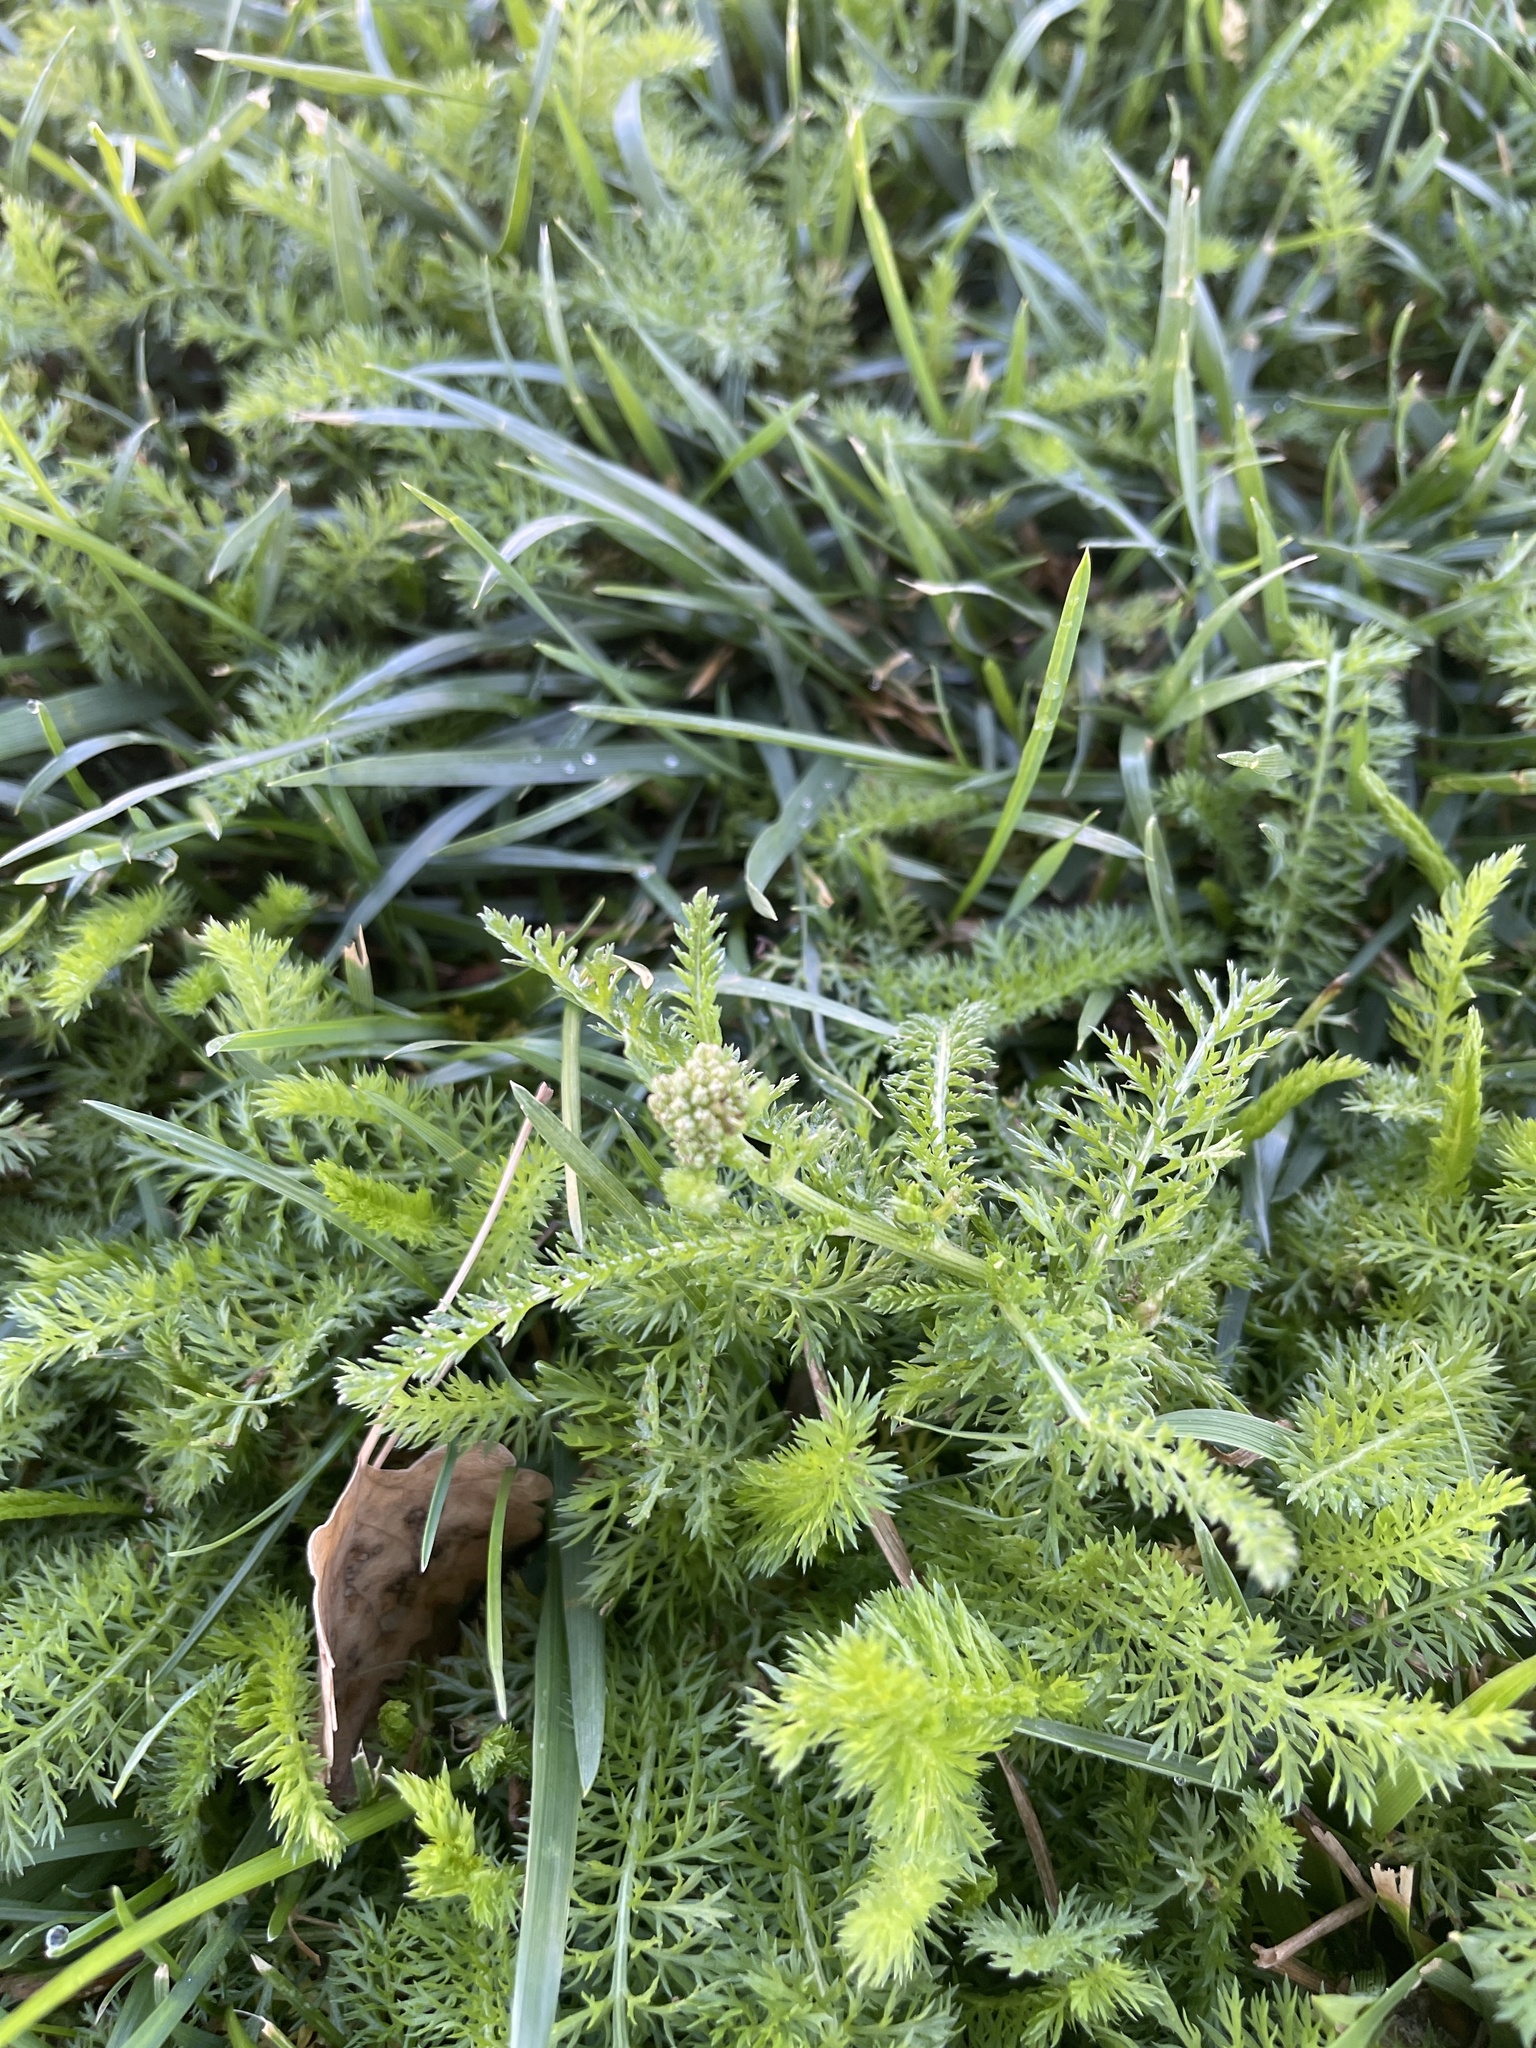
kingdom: Plantae
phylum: Tracheophyta
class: Magnoliopsida
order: Asterales
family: Asteraceae
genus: Achillea
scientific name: Achillea millefolium
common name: Yarrow
